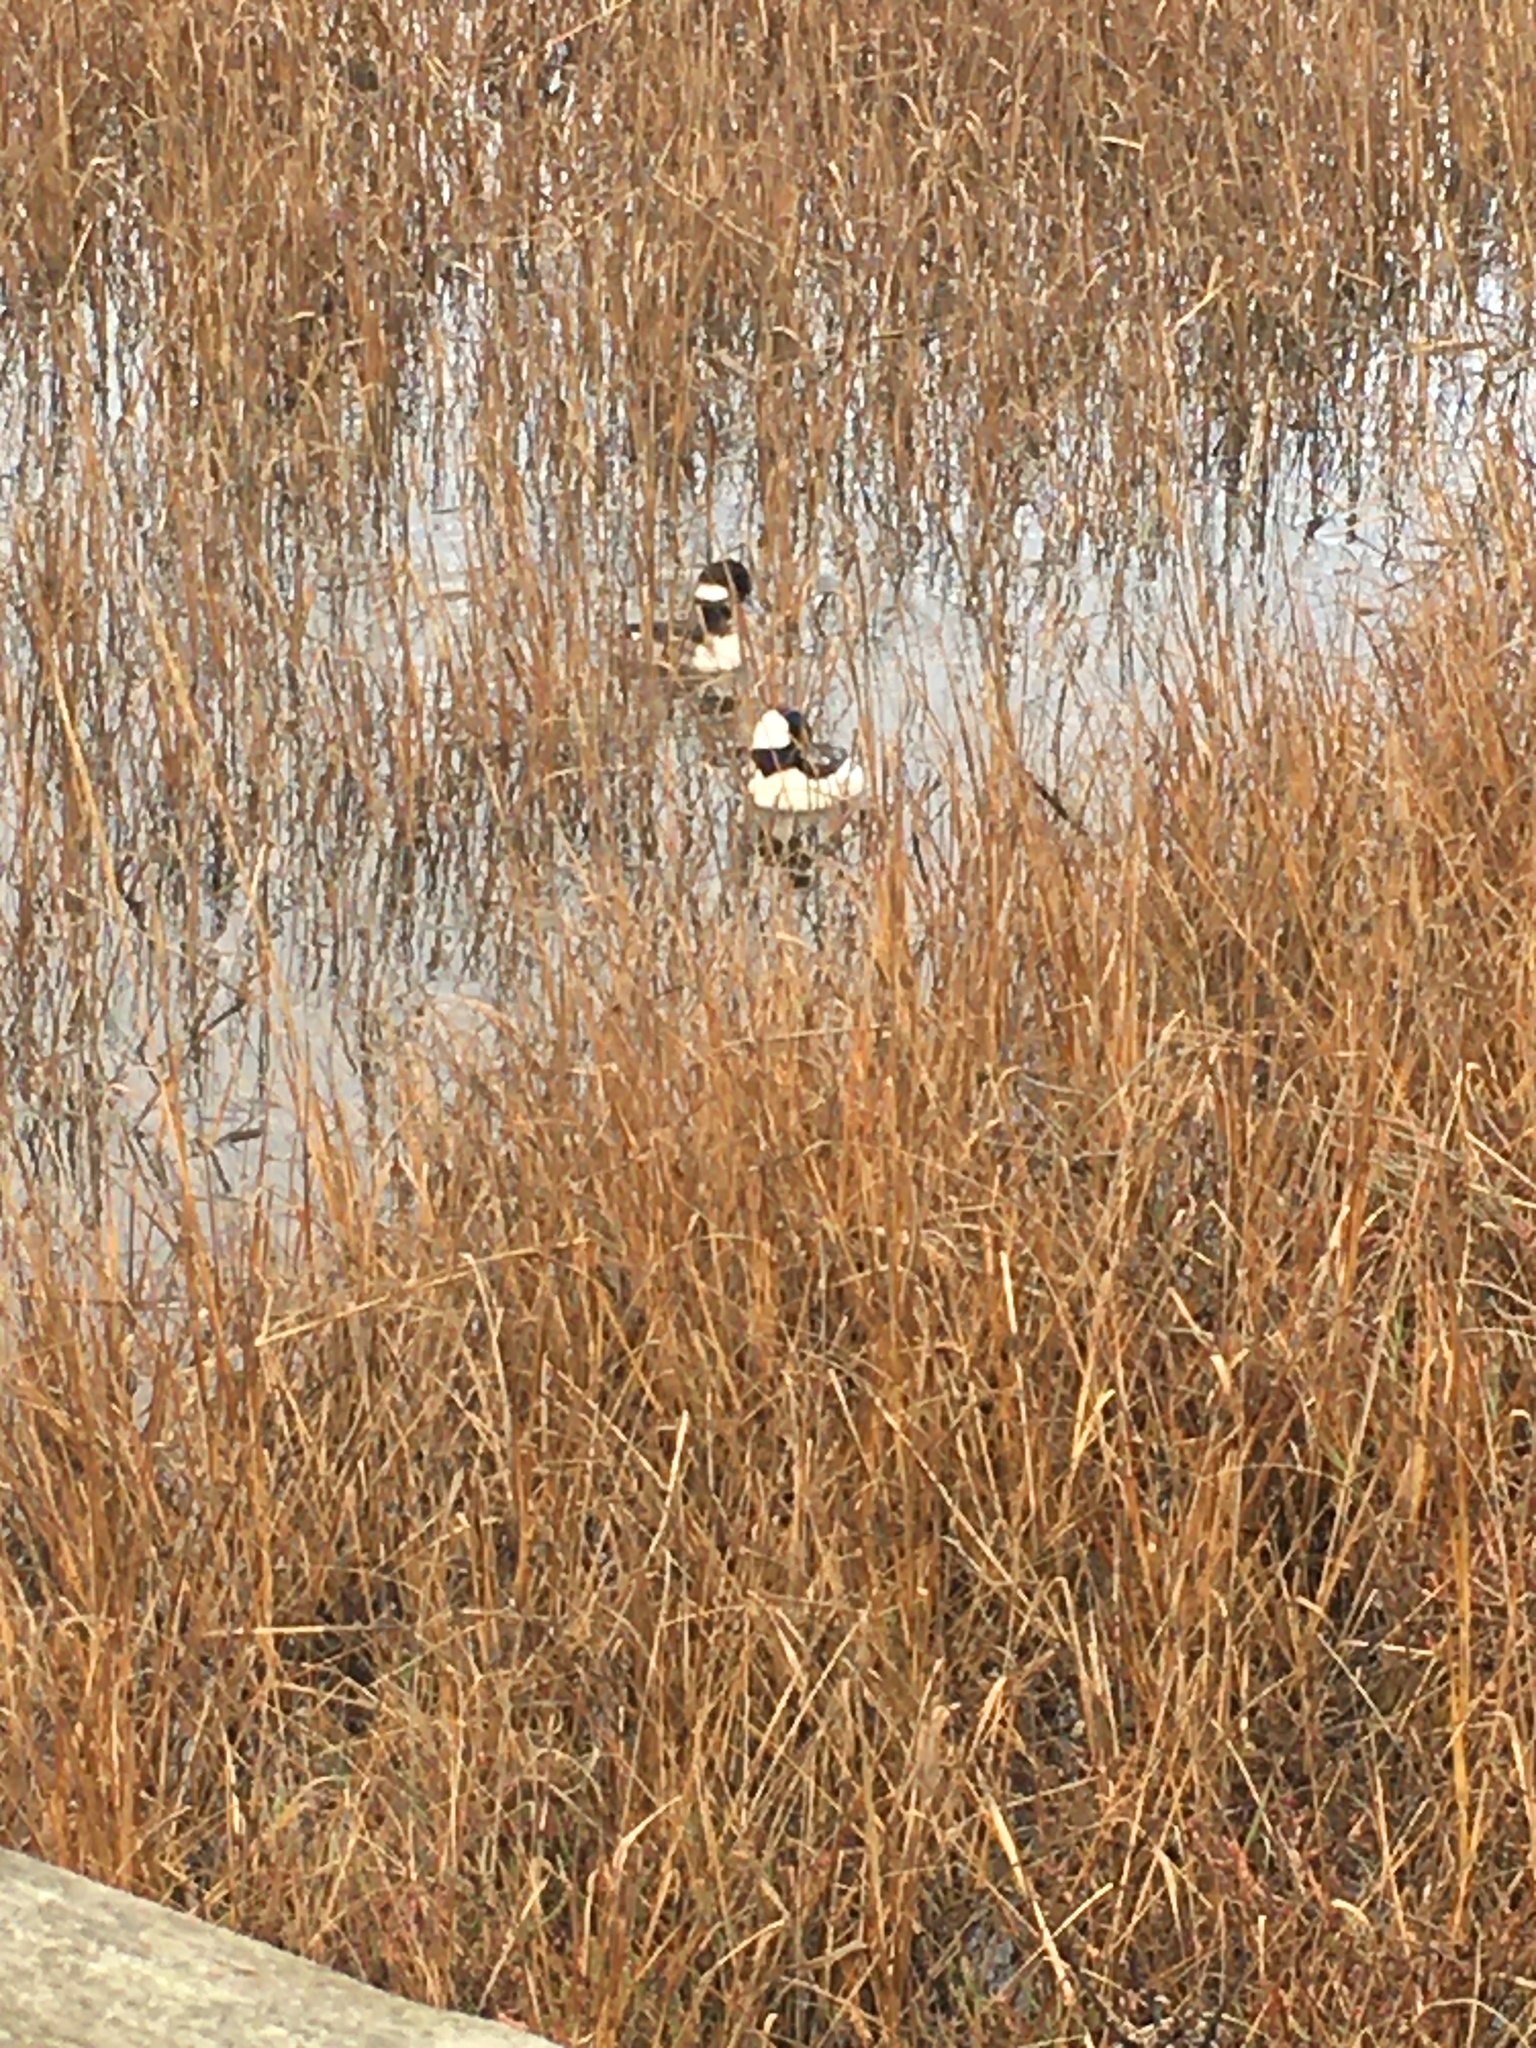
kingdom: Animalia
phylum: Chordata
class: Aves
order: Anseriformes
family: Anatidae
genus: Bucephala
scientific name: Bucephala albeola
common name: Bufflehead
